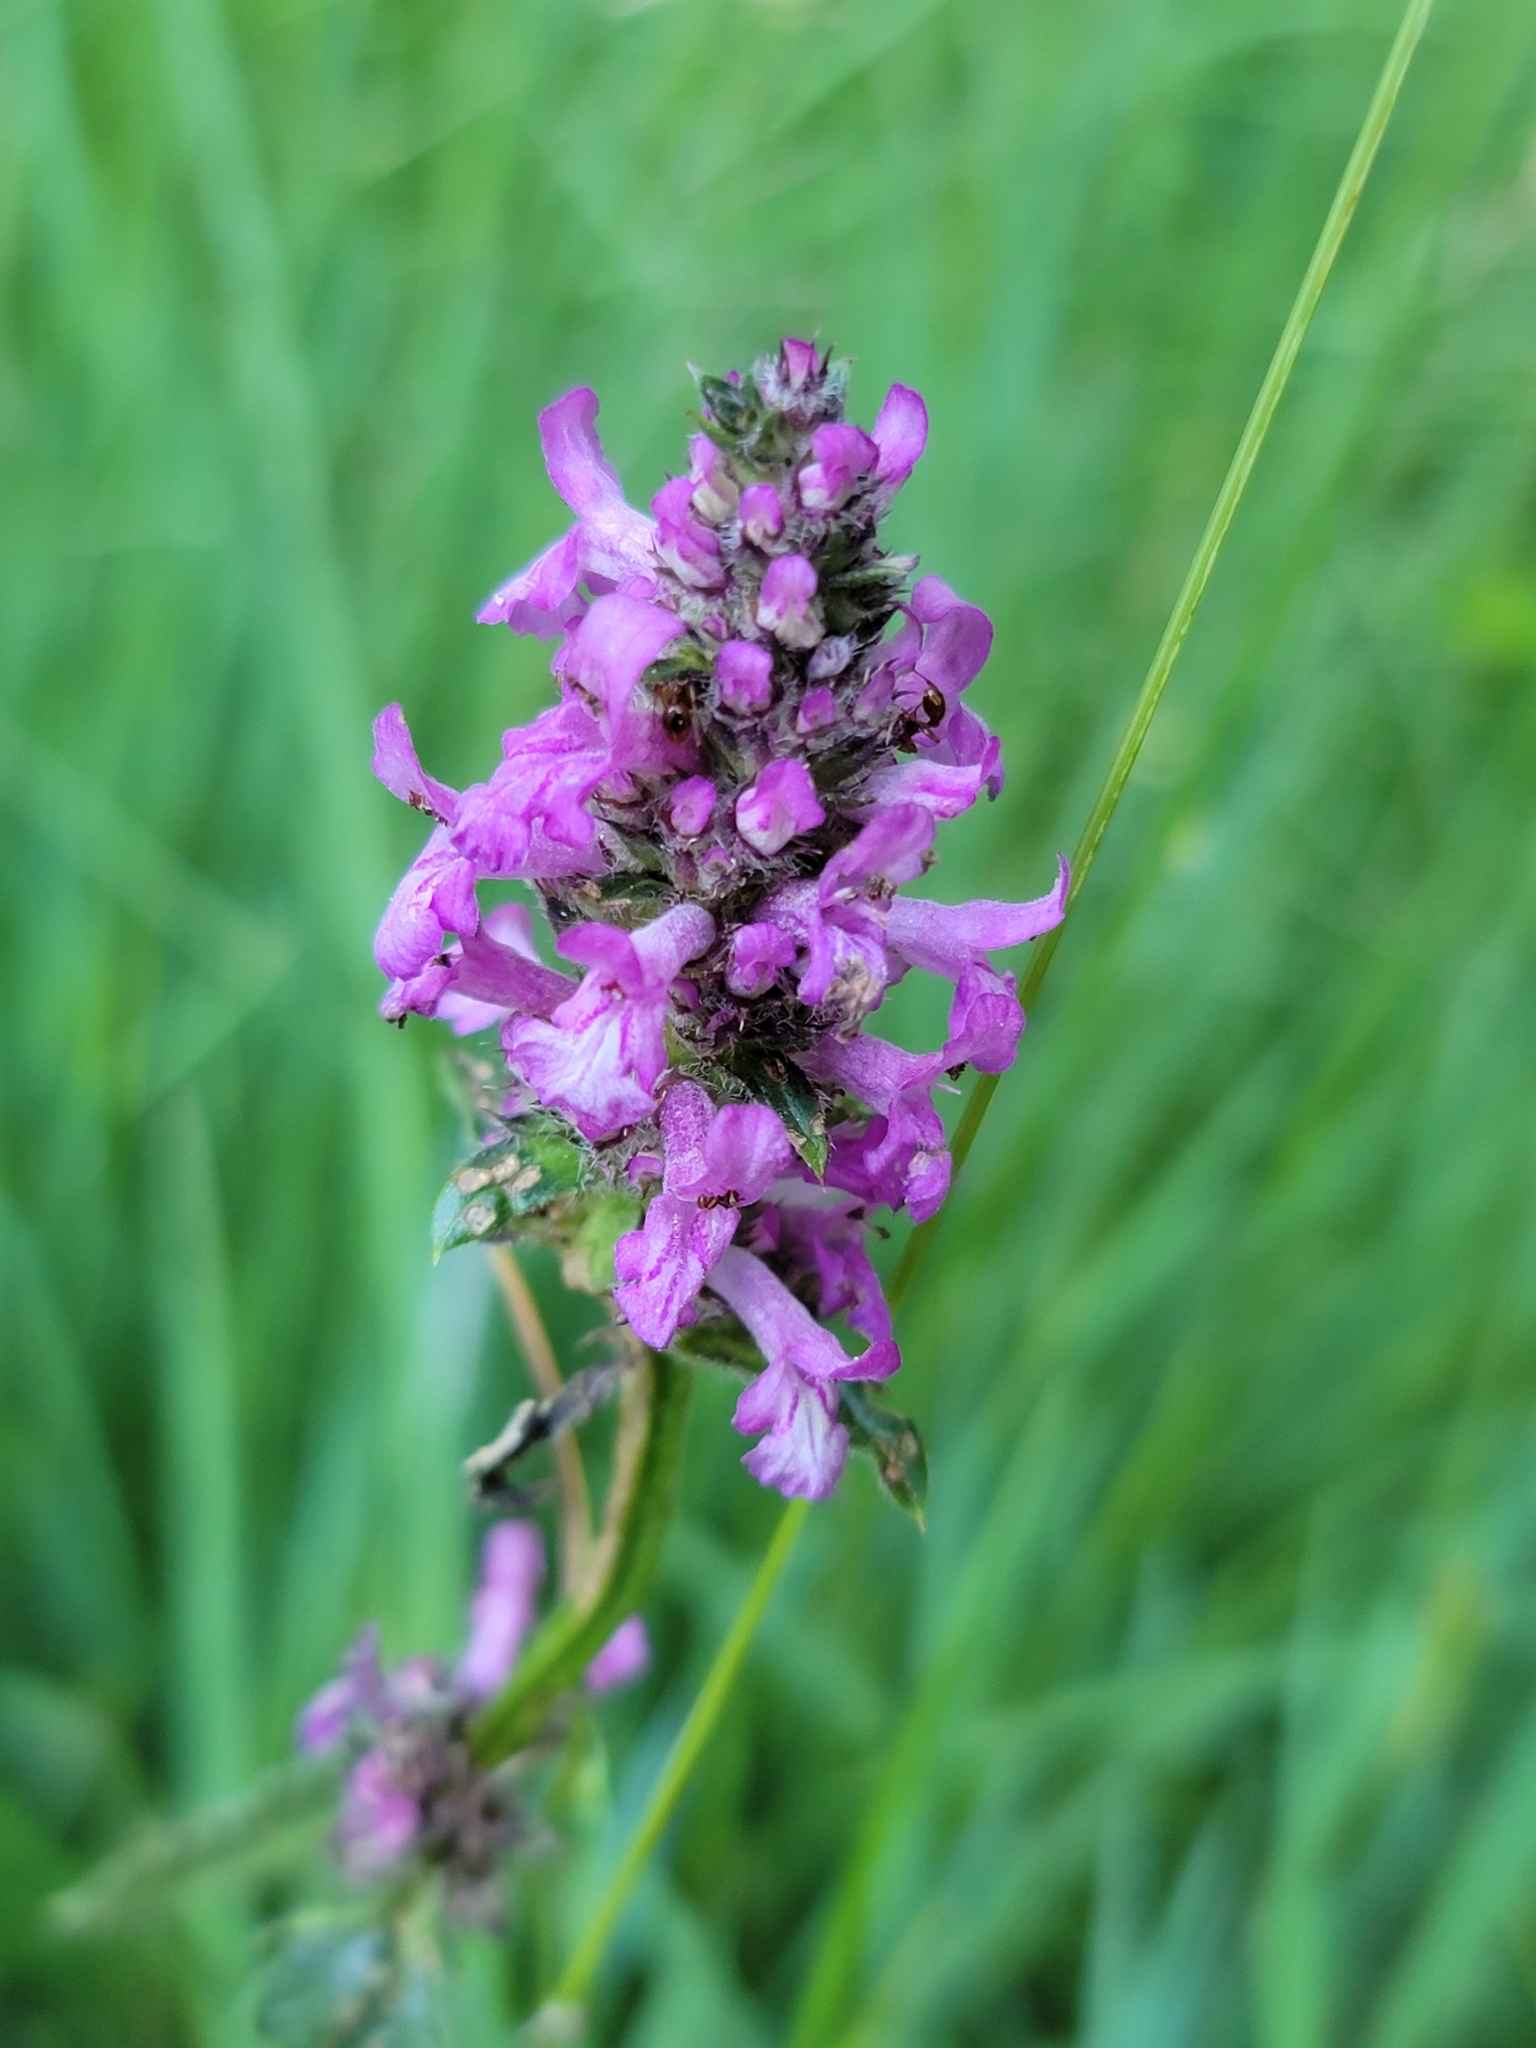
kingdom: Plantae
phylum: Tracheophyta
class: Magnoliopsida
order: Lamiales
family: Lamiaceae
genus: Betonica
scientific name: Betonica officinalis
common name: Bishop's-wort
